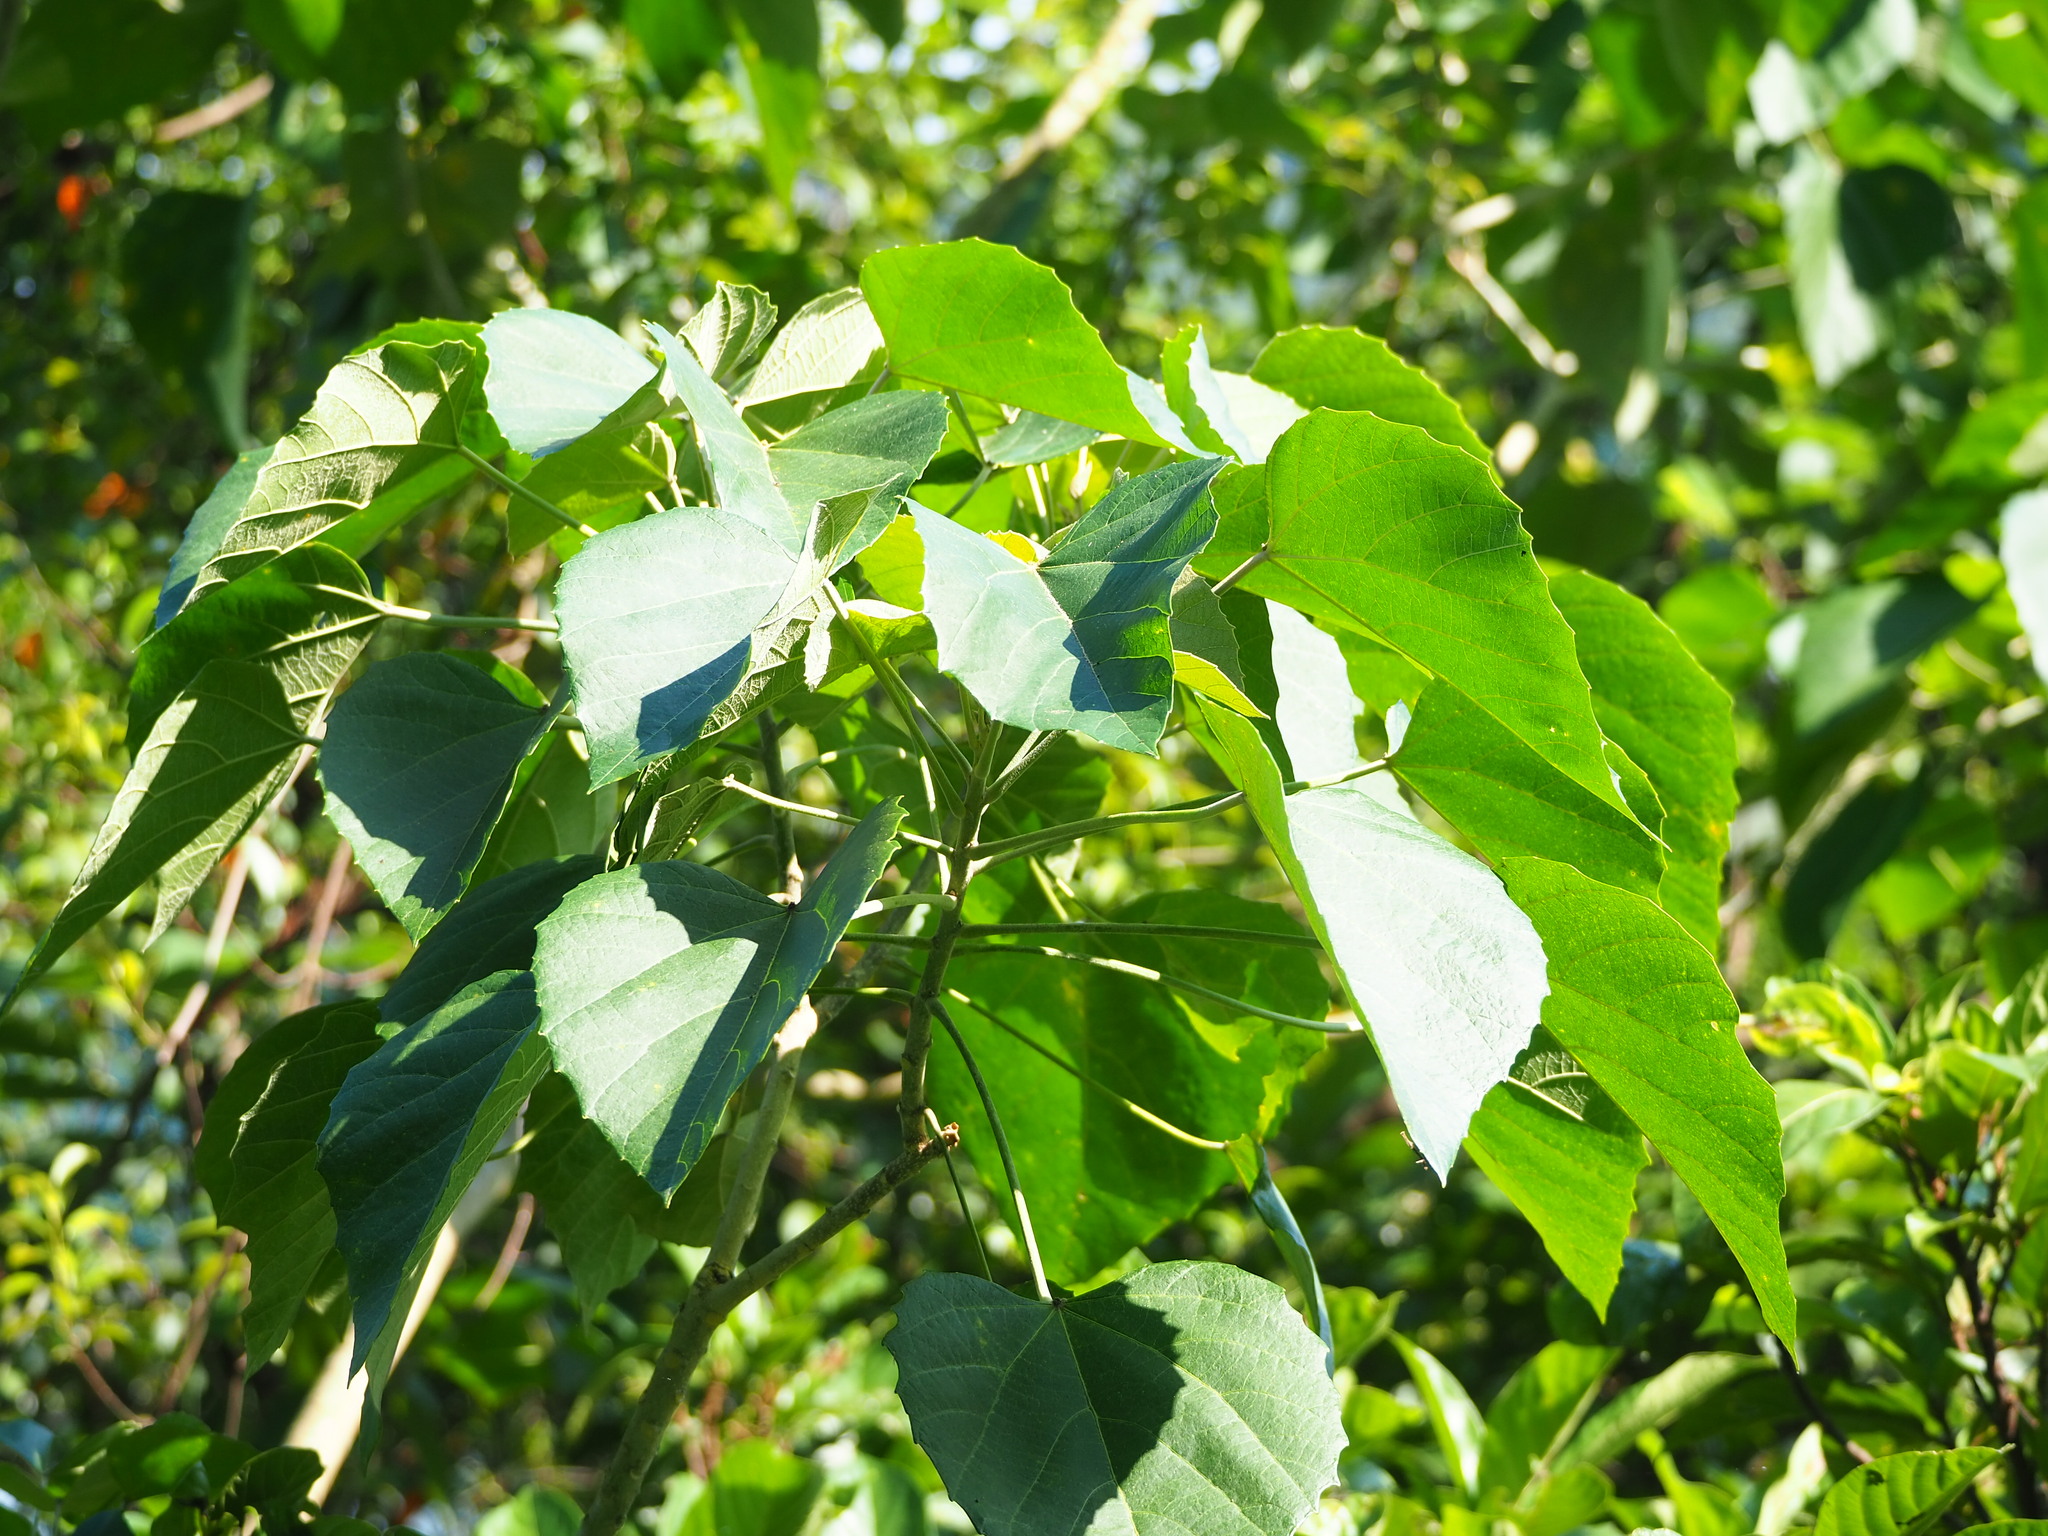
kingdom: Plantae
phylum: Tracheophyta
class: Magnoliopsida
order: Malpighiales
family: Euphorbiaceae
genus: Melanolepis
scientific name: Melanolepis multiglandulosa
